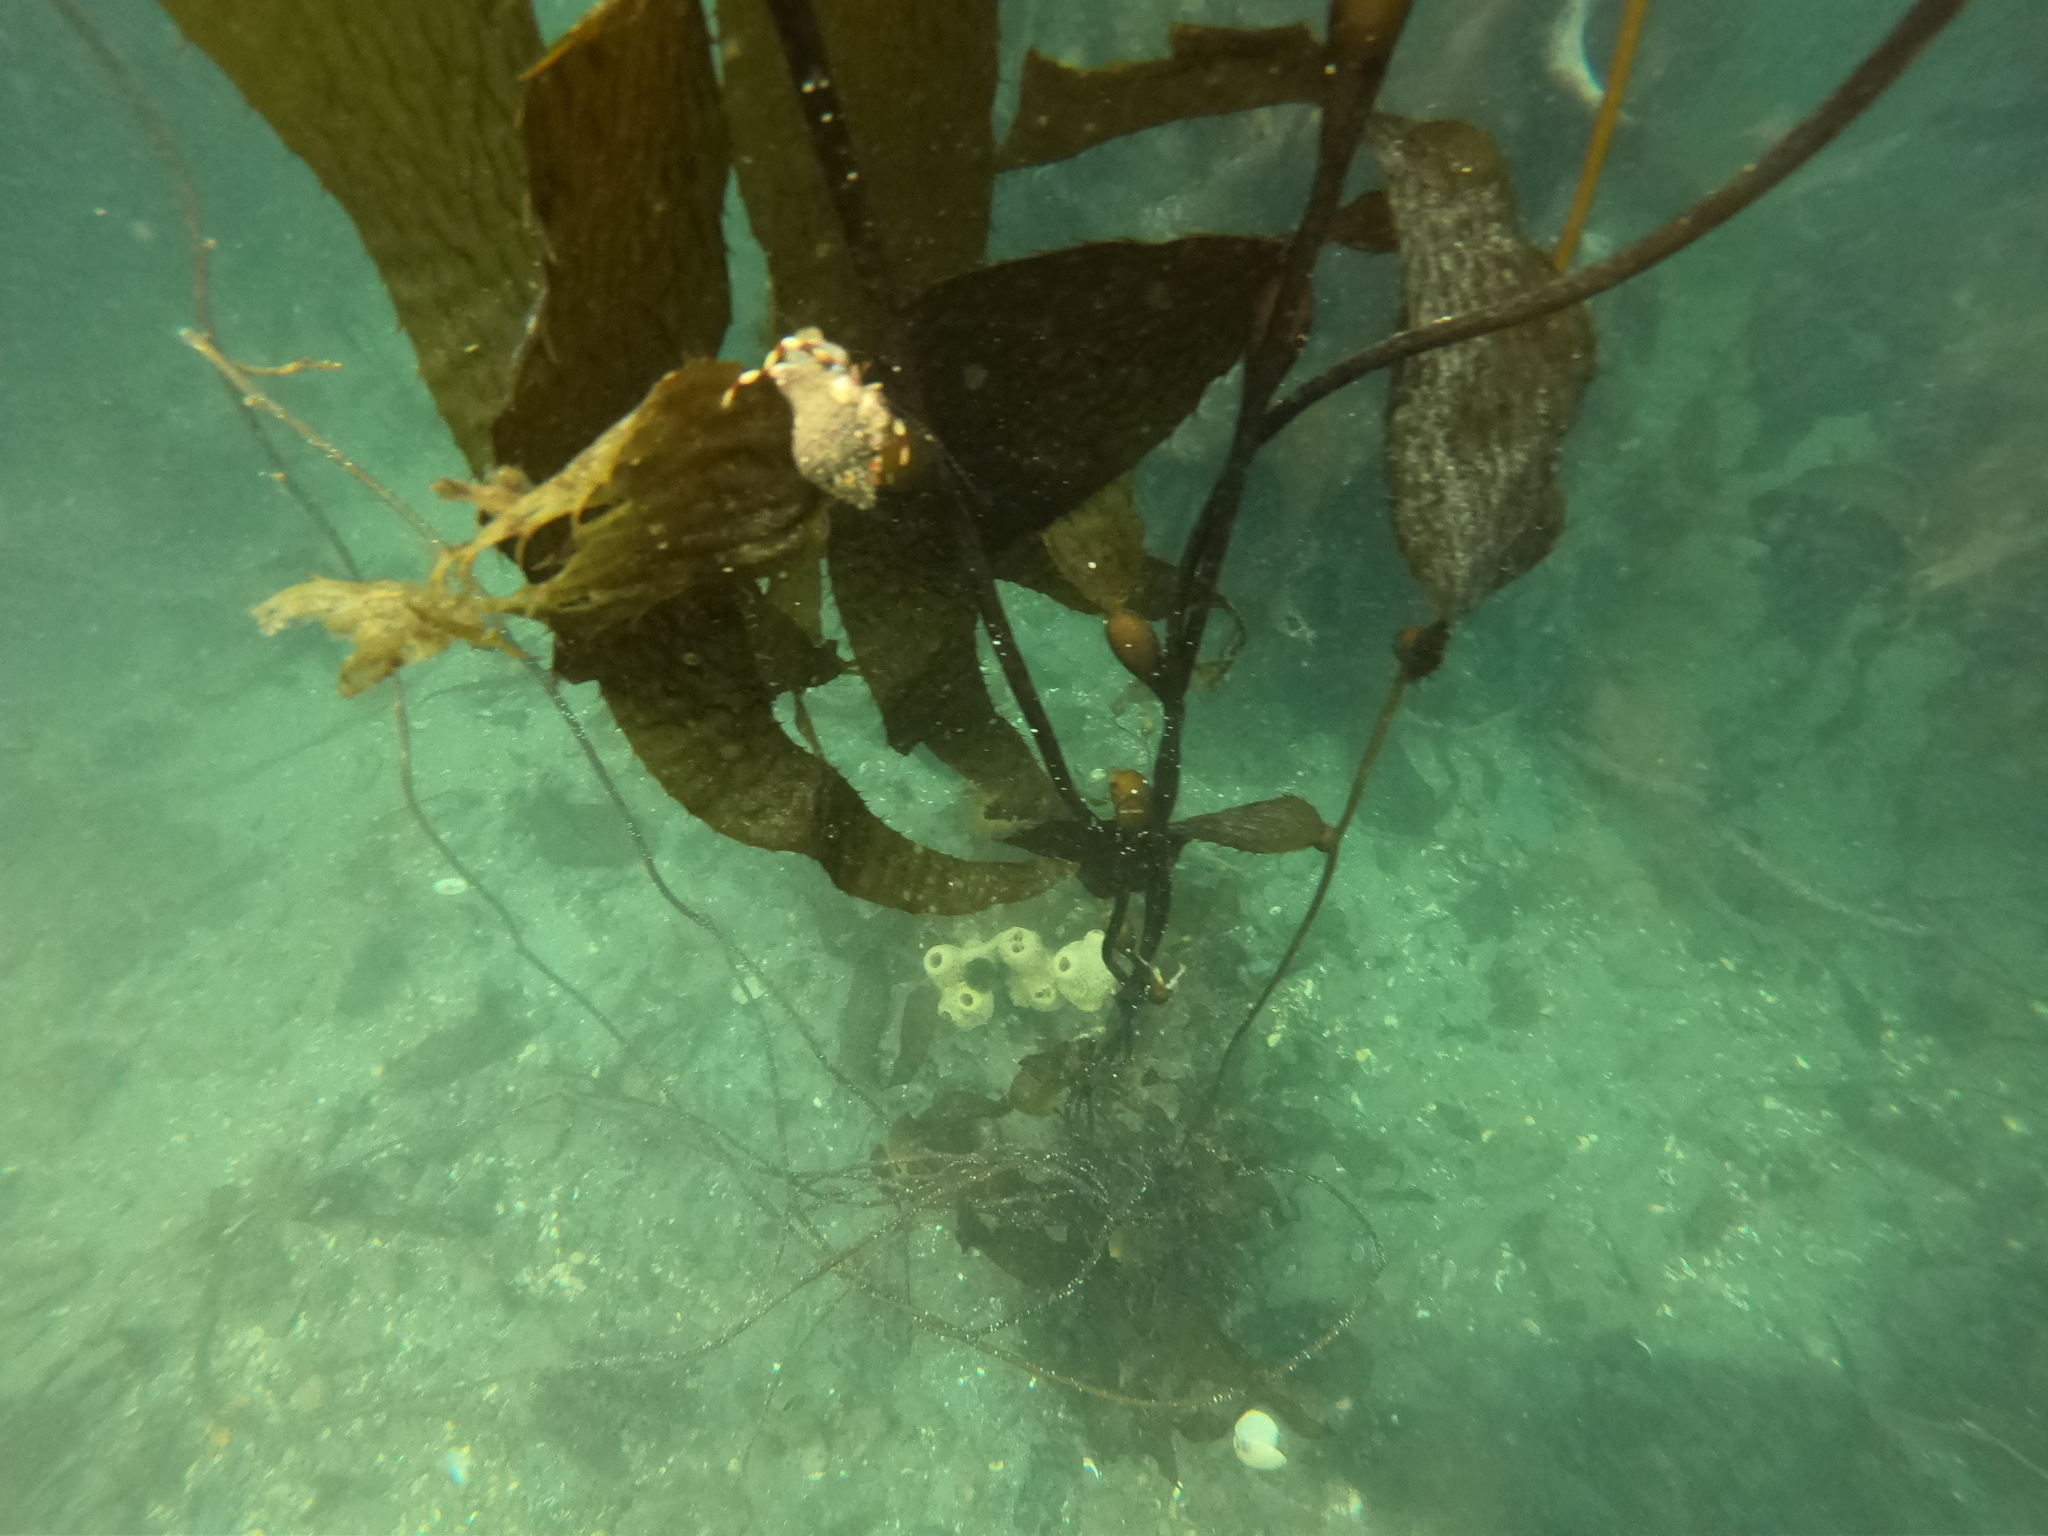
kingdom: Animalia
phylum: Arthropoda
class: Malacostraca
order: Decapoda
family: Paguridae
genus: Pagurus
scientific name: Pagurus comptus
